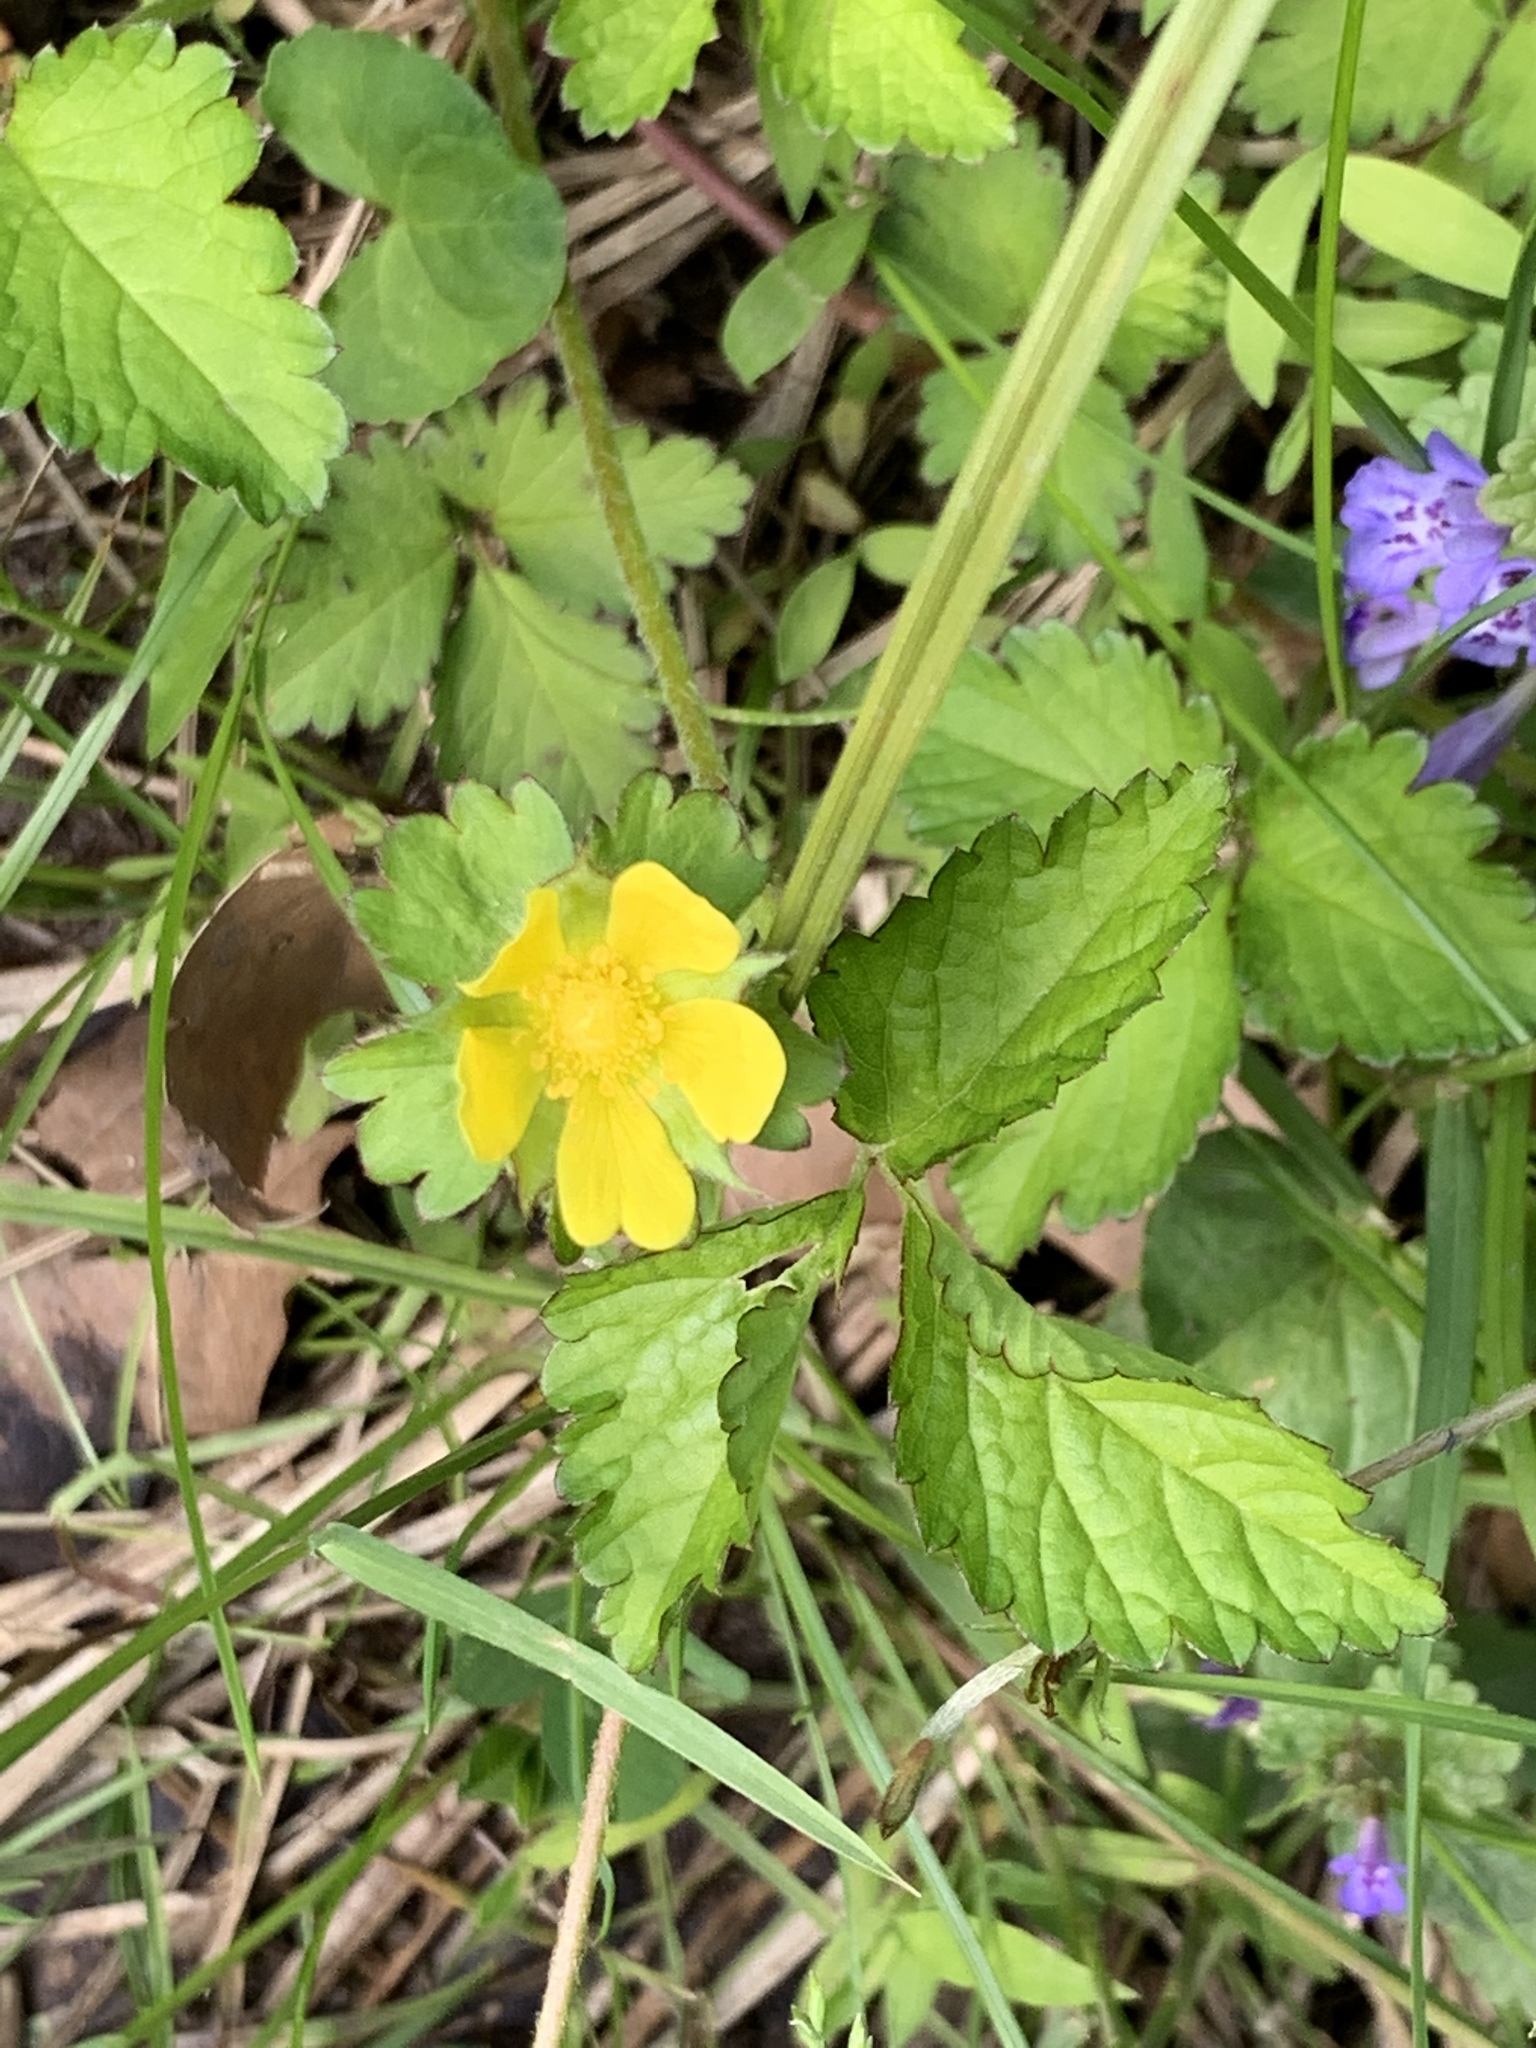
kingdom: Plantae
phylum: Tracheophyta
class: Magnoliopsida
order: Rosales
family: Rosaceae
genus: Potentilla
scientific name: Potentilla indica
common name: Yellow-flowered strawberry
